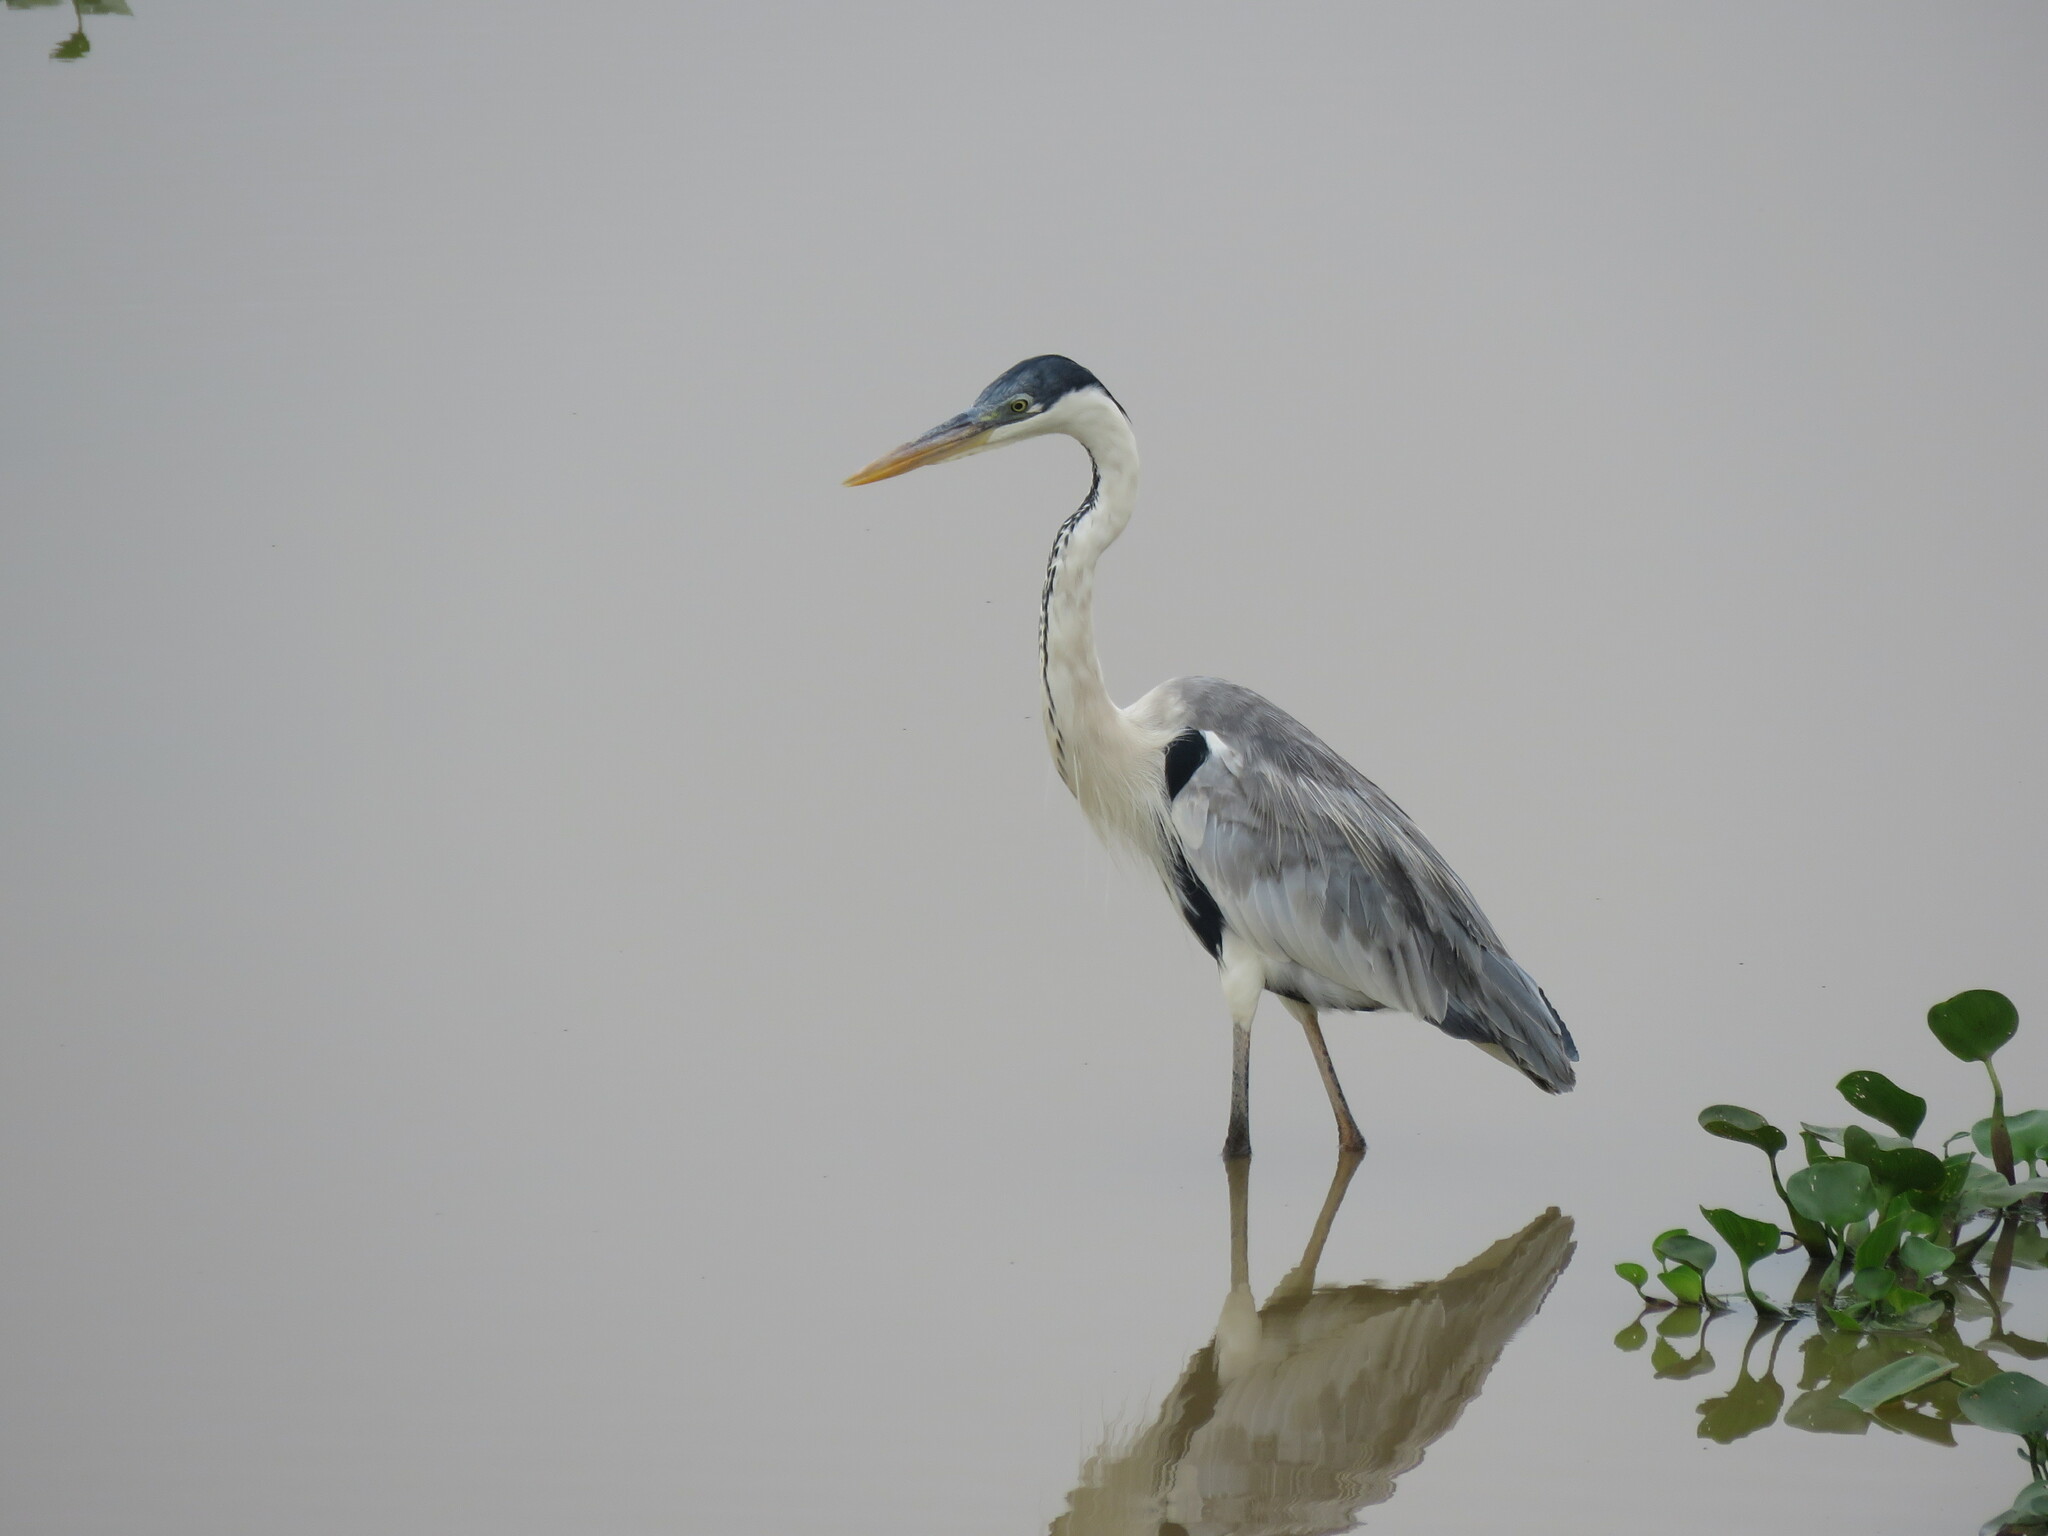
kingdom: Animalia
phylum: Chordata
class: Aves
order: Pelecaniformes
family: Ardeidae
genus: Ardea
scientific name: Ardea cocoi
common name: Cocoi heron
